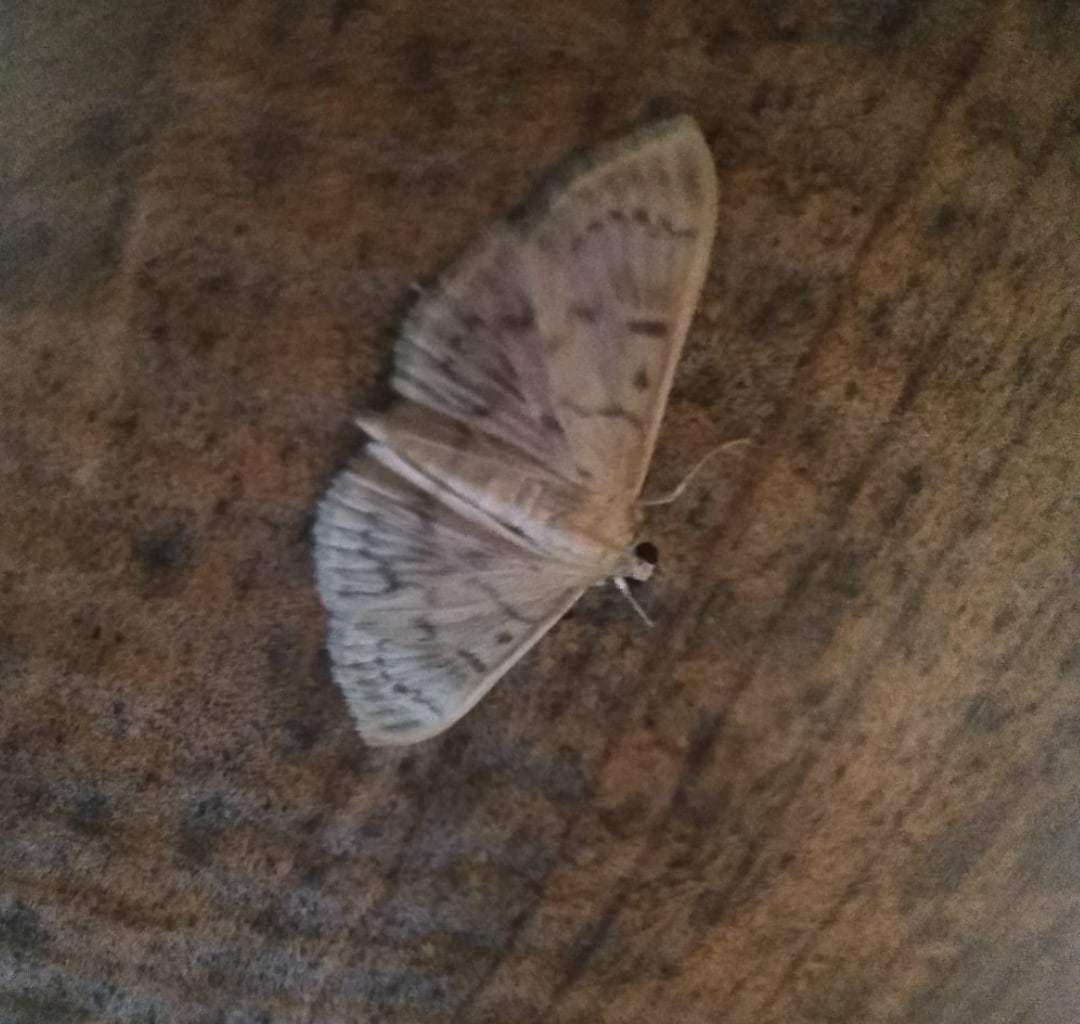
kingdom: Animalia
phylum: Arthropoda
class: Insecta
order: Lepidoptera
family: Crambidae
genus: Patania
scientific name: Patania ruralis
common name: Mother of pearl
